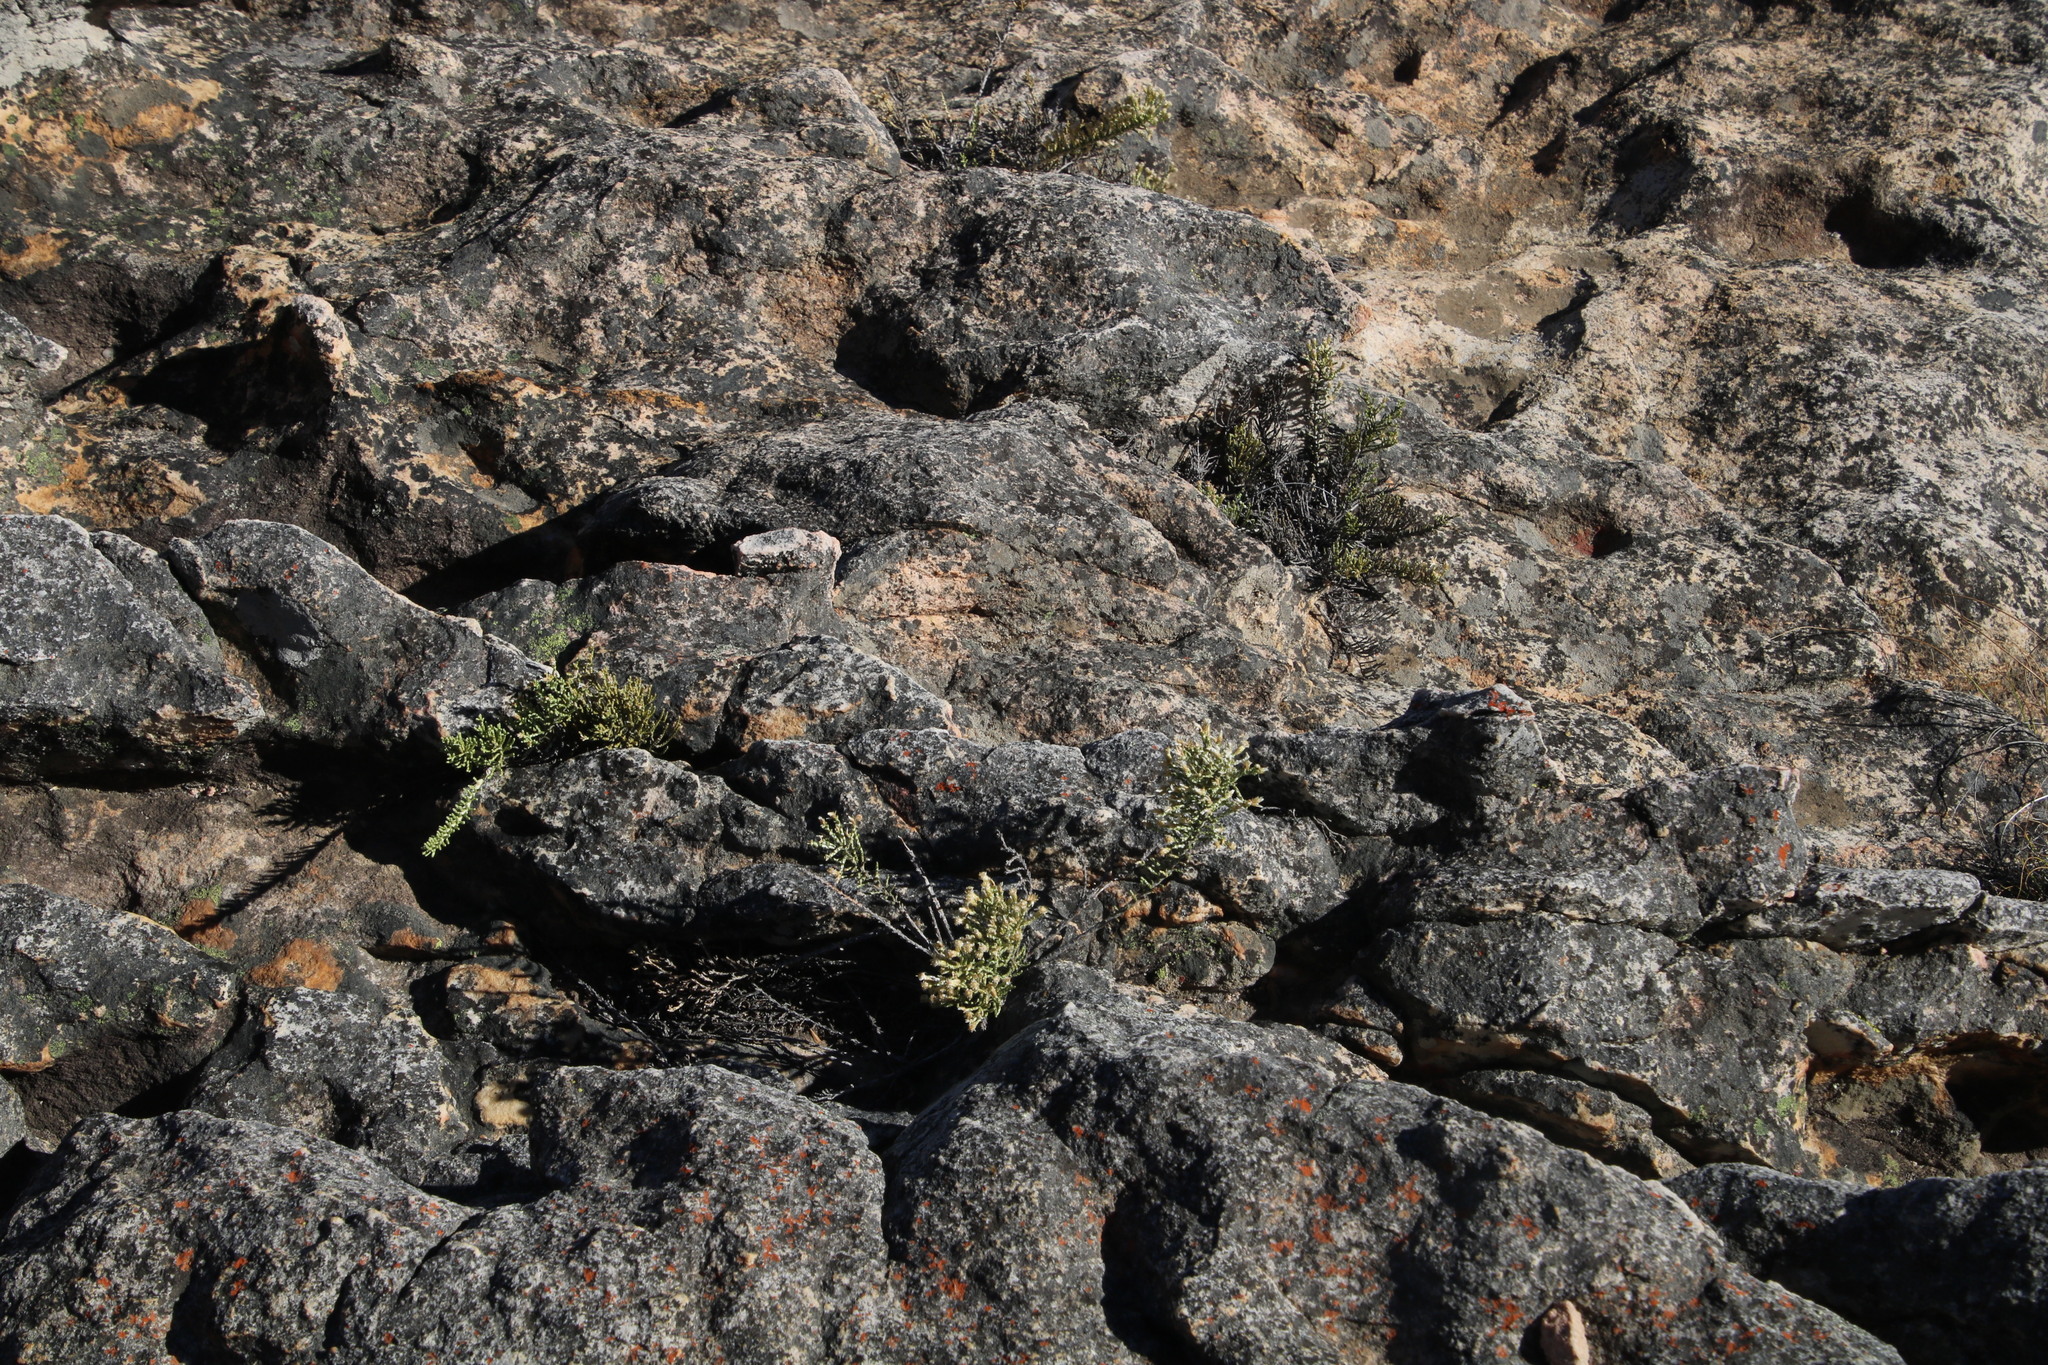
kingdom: Plantae
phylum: Tracheophyta
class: Magnoliopsida
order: Asterales
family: Asteraceae
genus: Dolichothrix
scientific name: Dolichothrix ericoides
